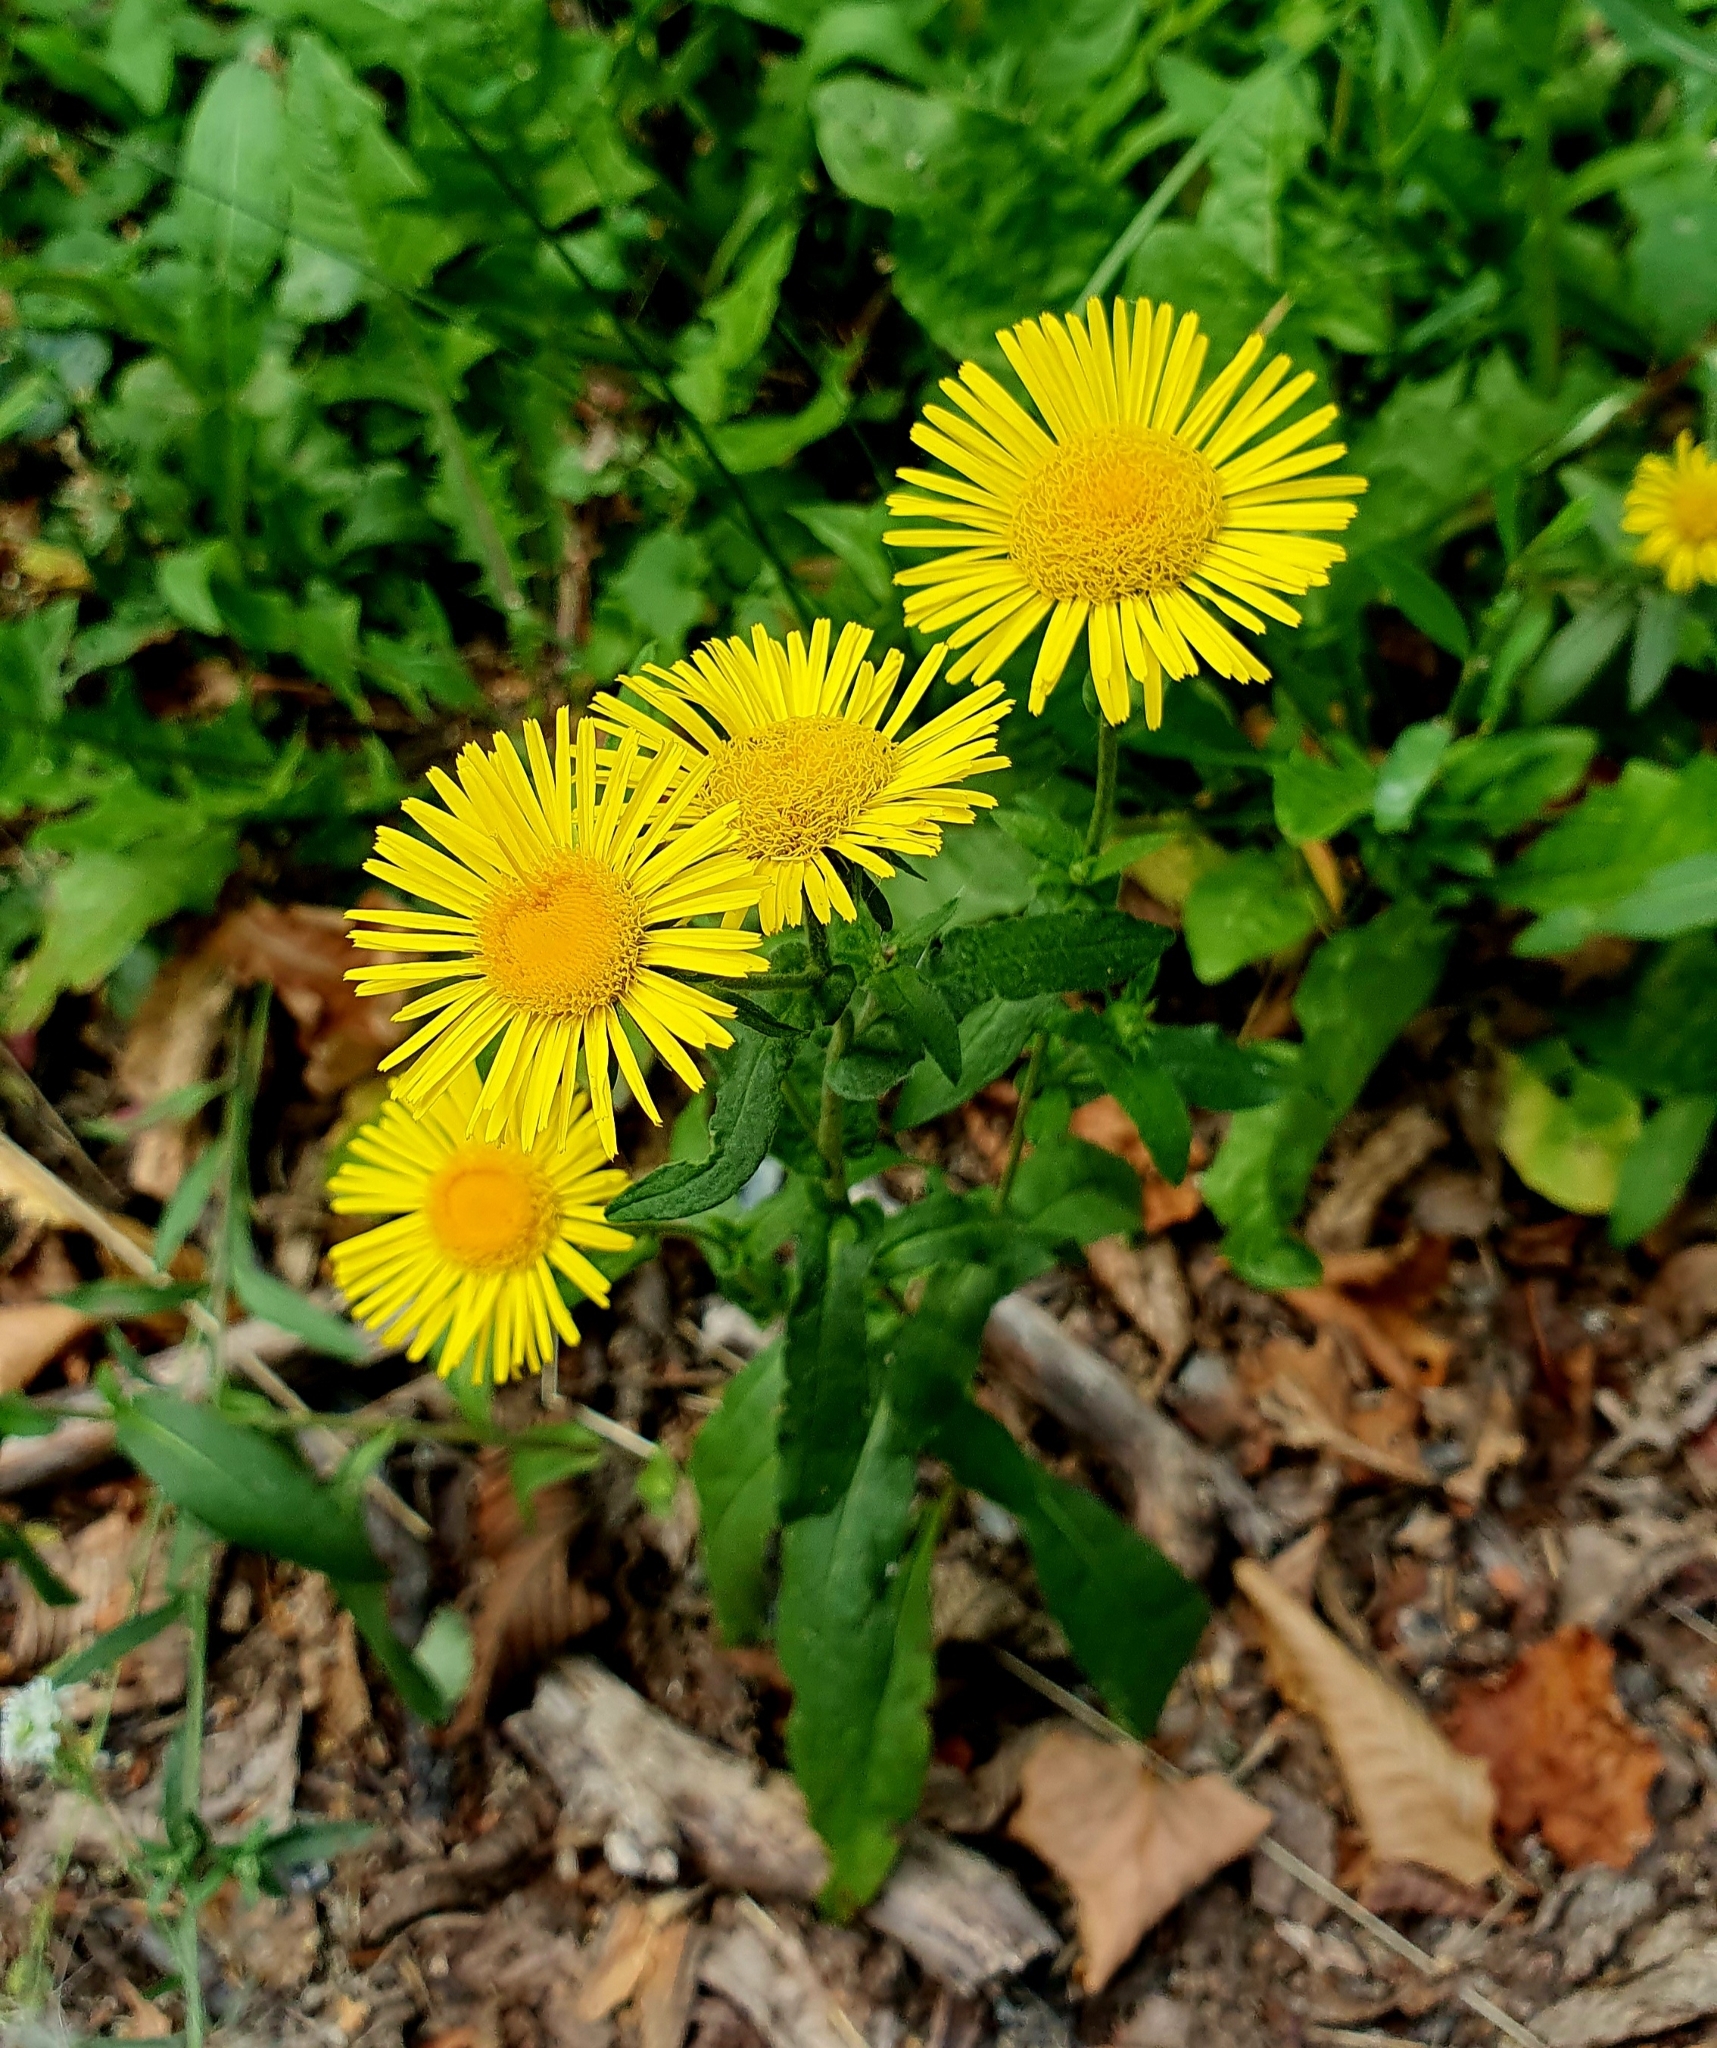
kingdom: Plantae
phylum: Tracheophyta
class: Magnoliopsida
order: Asterales
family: Asteraceae
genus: Pentanema
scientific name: Pentanema britannicum
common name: British elecampane
